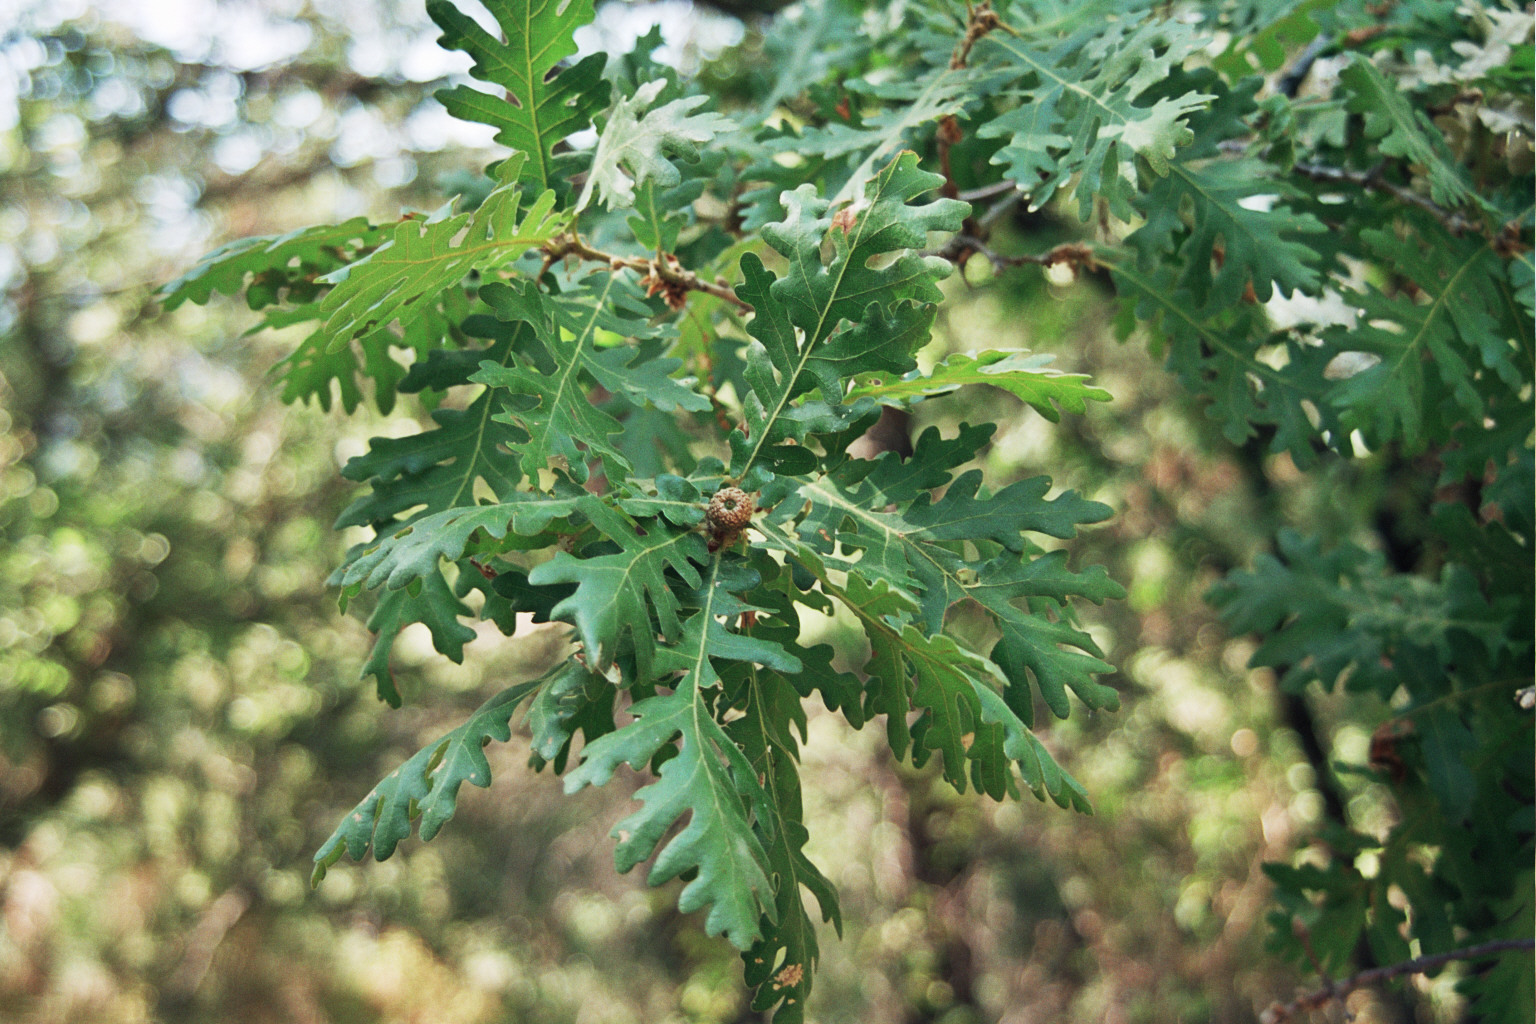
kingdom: Plantae
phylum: Tracheophyta
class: Magnoliopsida
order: Fagales
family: Fagaceae
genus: Quercus
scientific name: Quercus conferta
